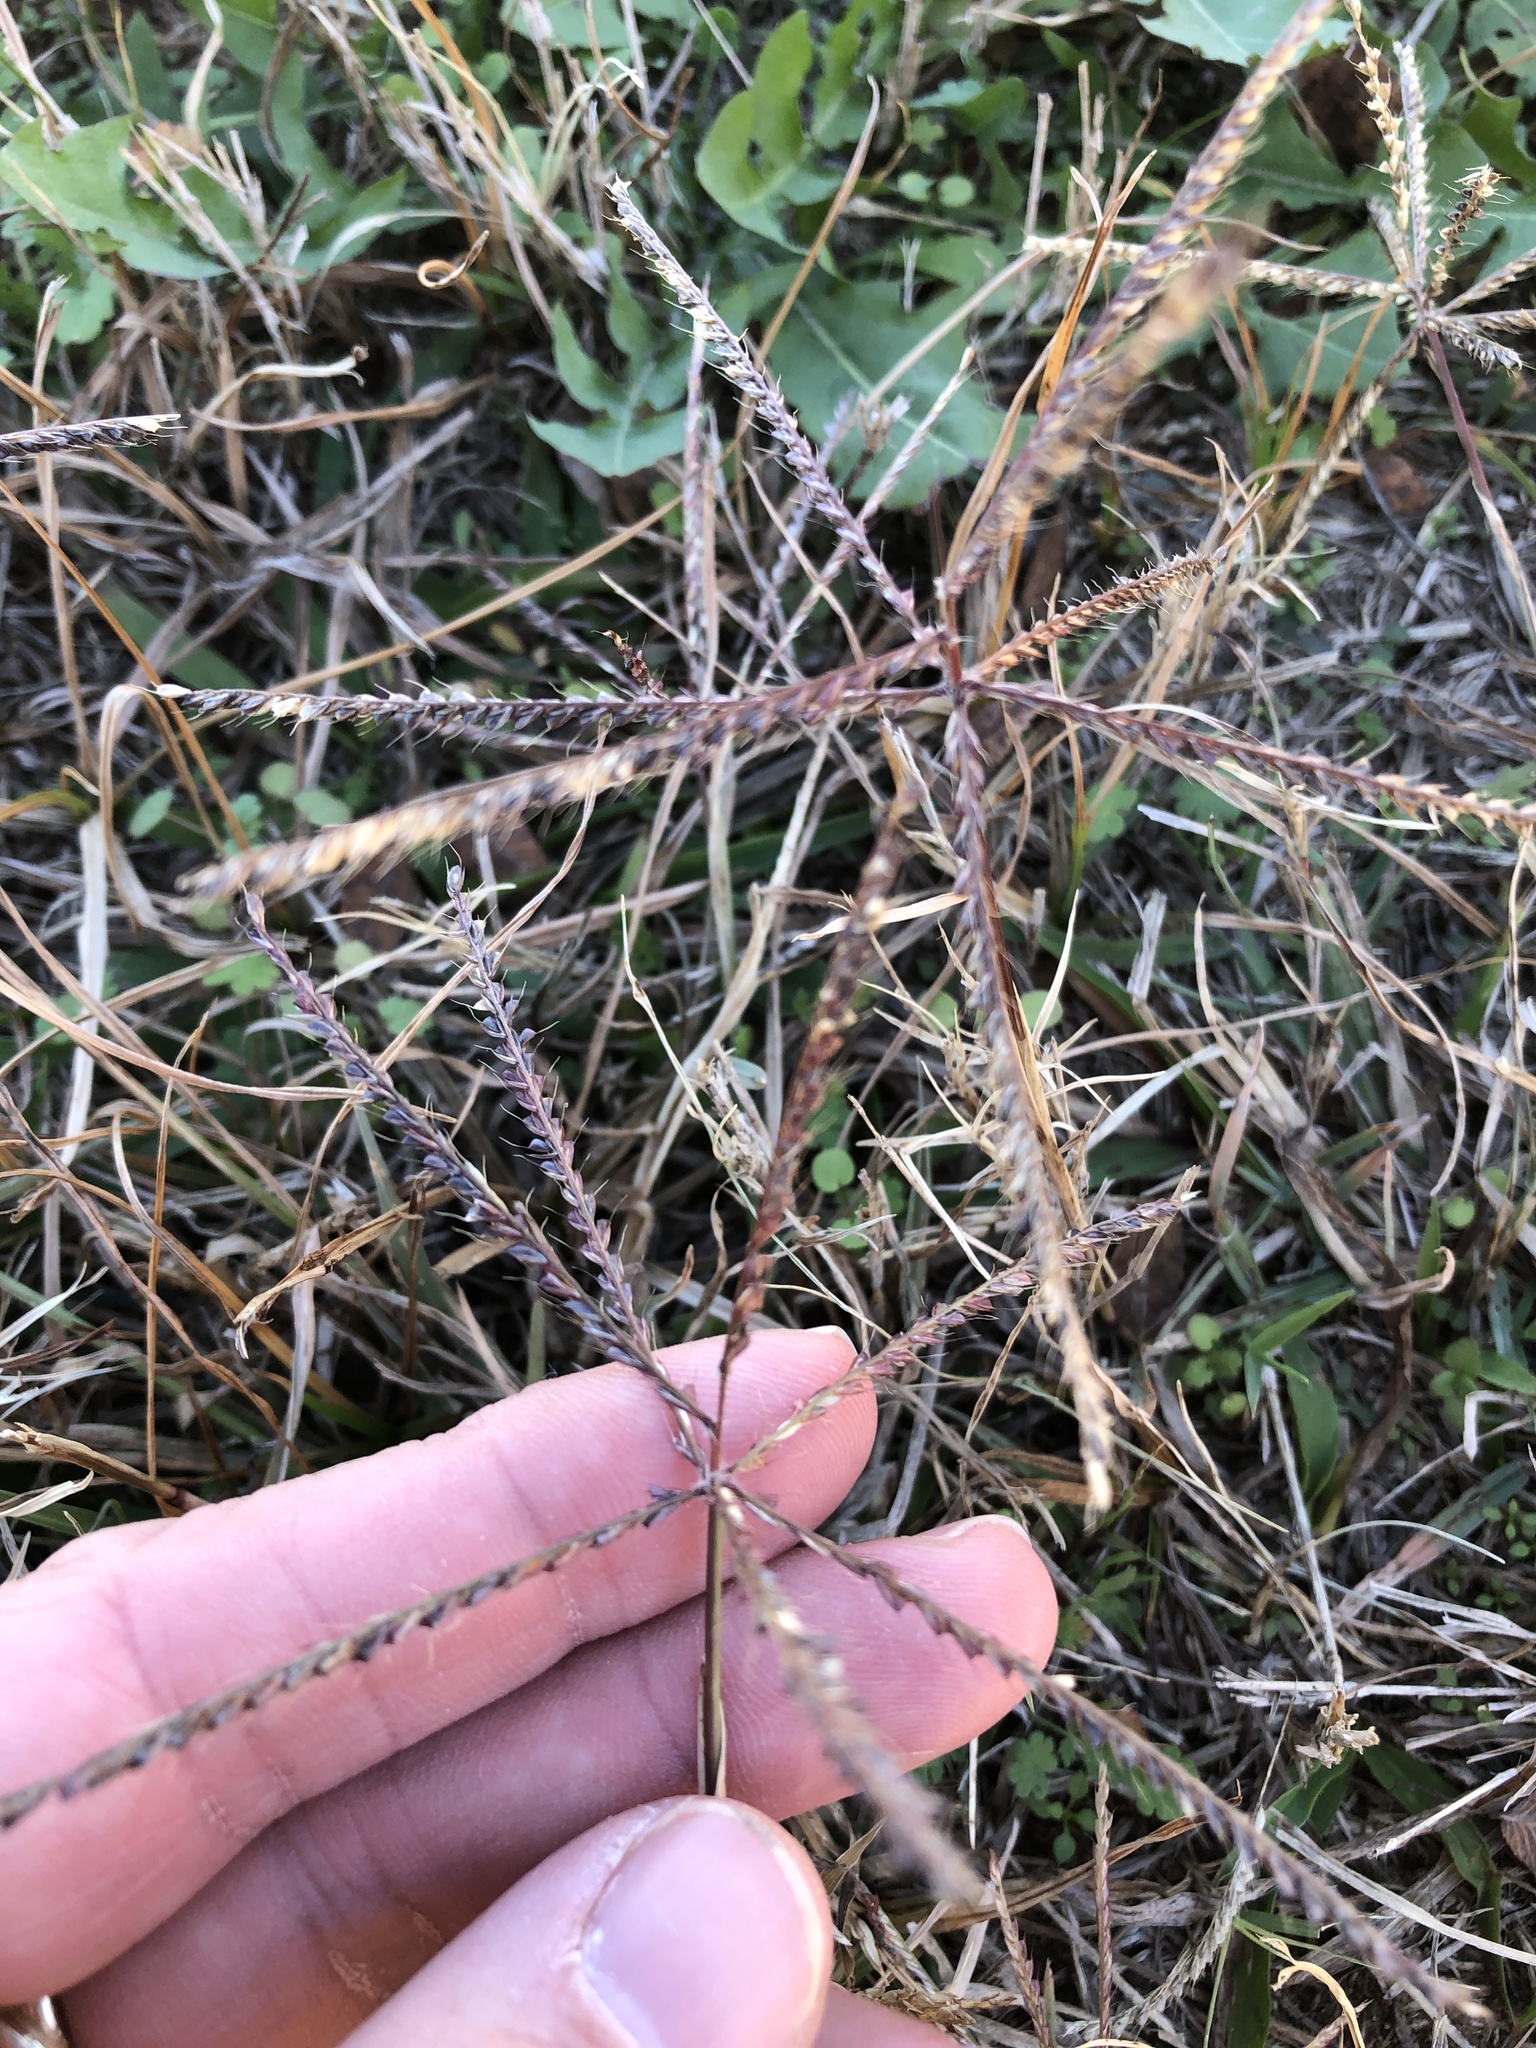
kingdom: Plantae
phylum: Tracheophyta
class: Liliopsida
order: Poales
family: Poaceae
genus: Chloris
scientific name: Chloris verticillata
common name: Tumble windmill grass
